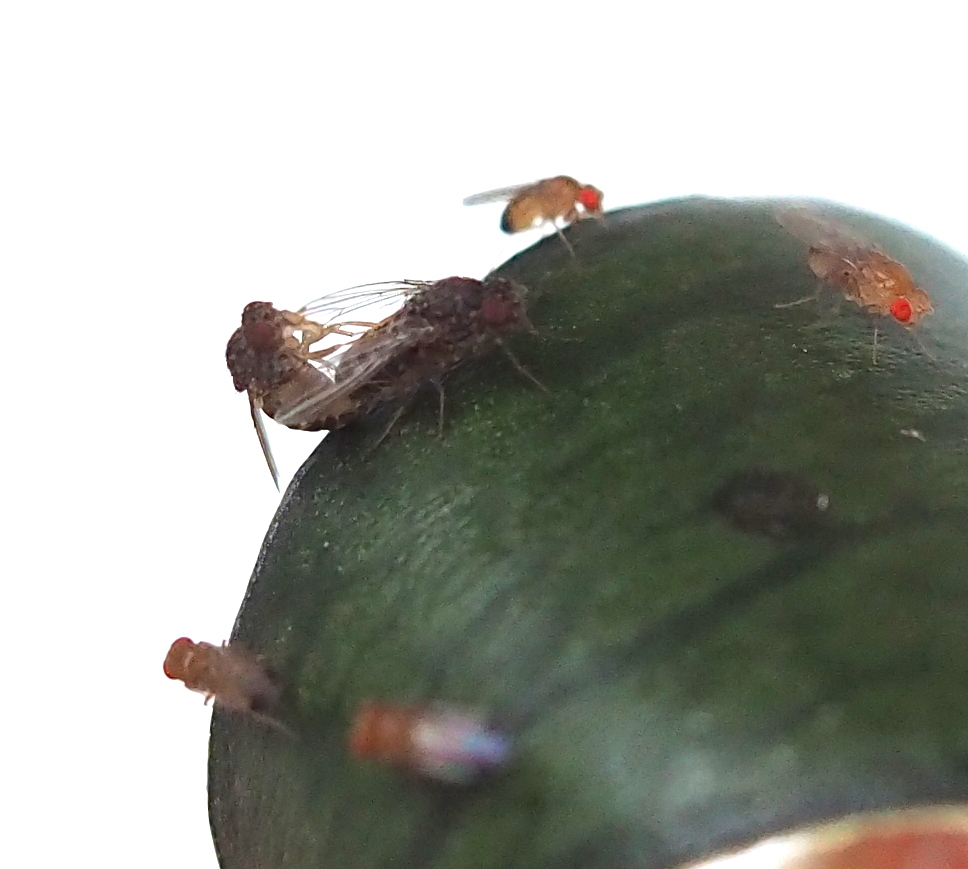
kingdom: Animalia
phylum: Arthropoda
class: Insecta
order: Diptera
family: Drosophilidae
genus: Drosophila
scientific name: Drosophila hydei
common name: Pomace fly
